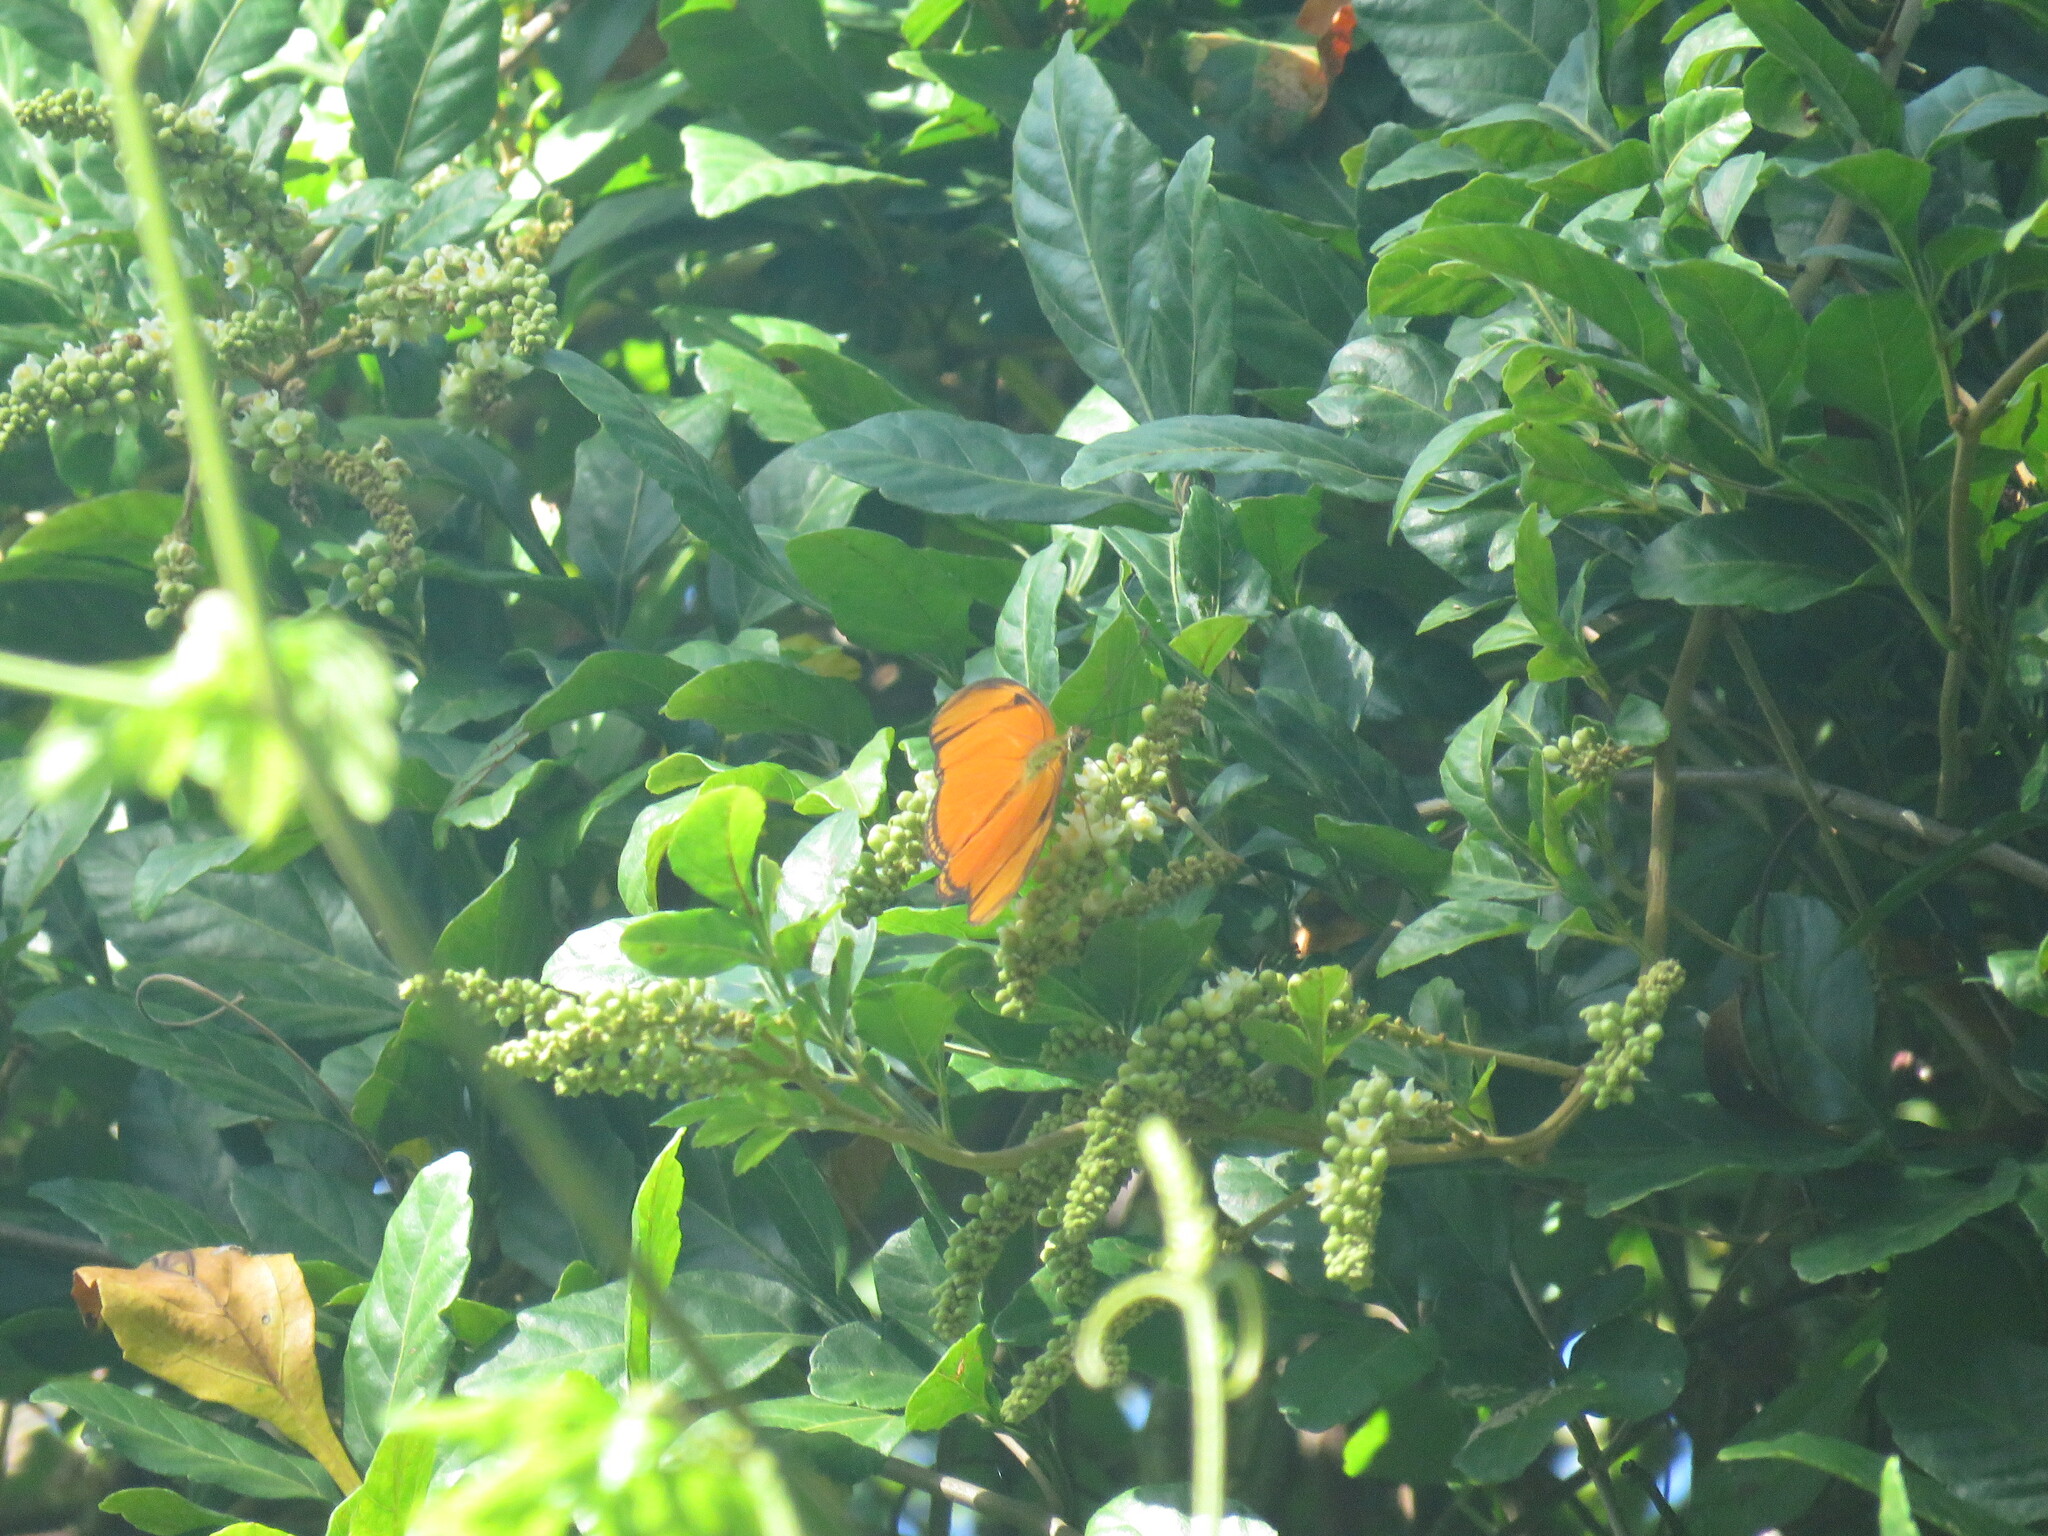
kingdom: Animalia
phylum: Arthropoda
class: Insecta
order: Lepidoptera
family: Nymphalidae
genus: Dryas
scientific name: Dryas iulia
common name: Flambeau
